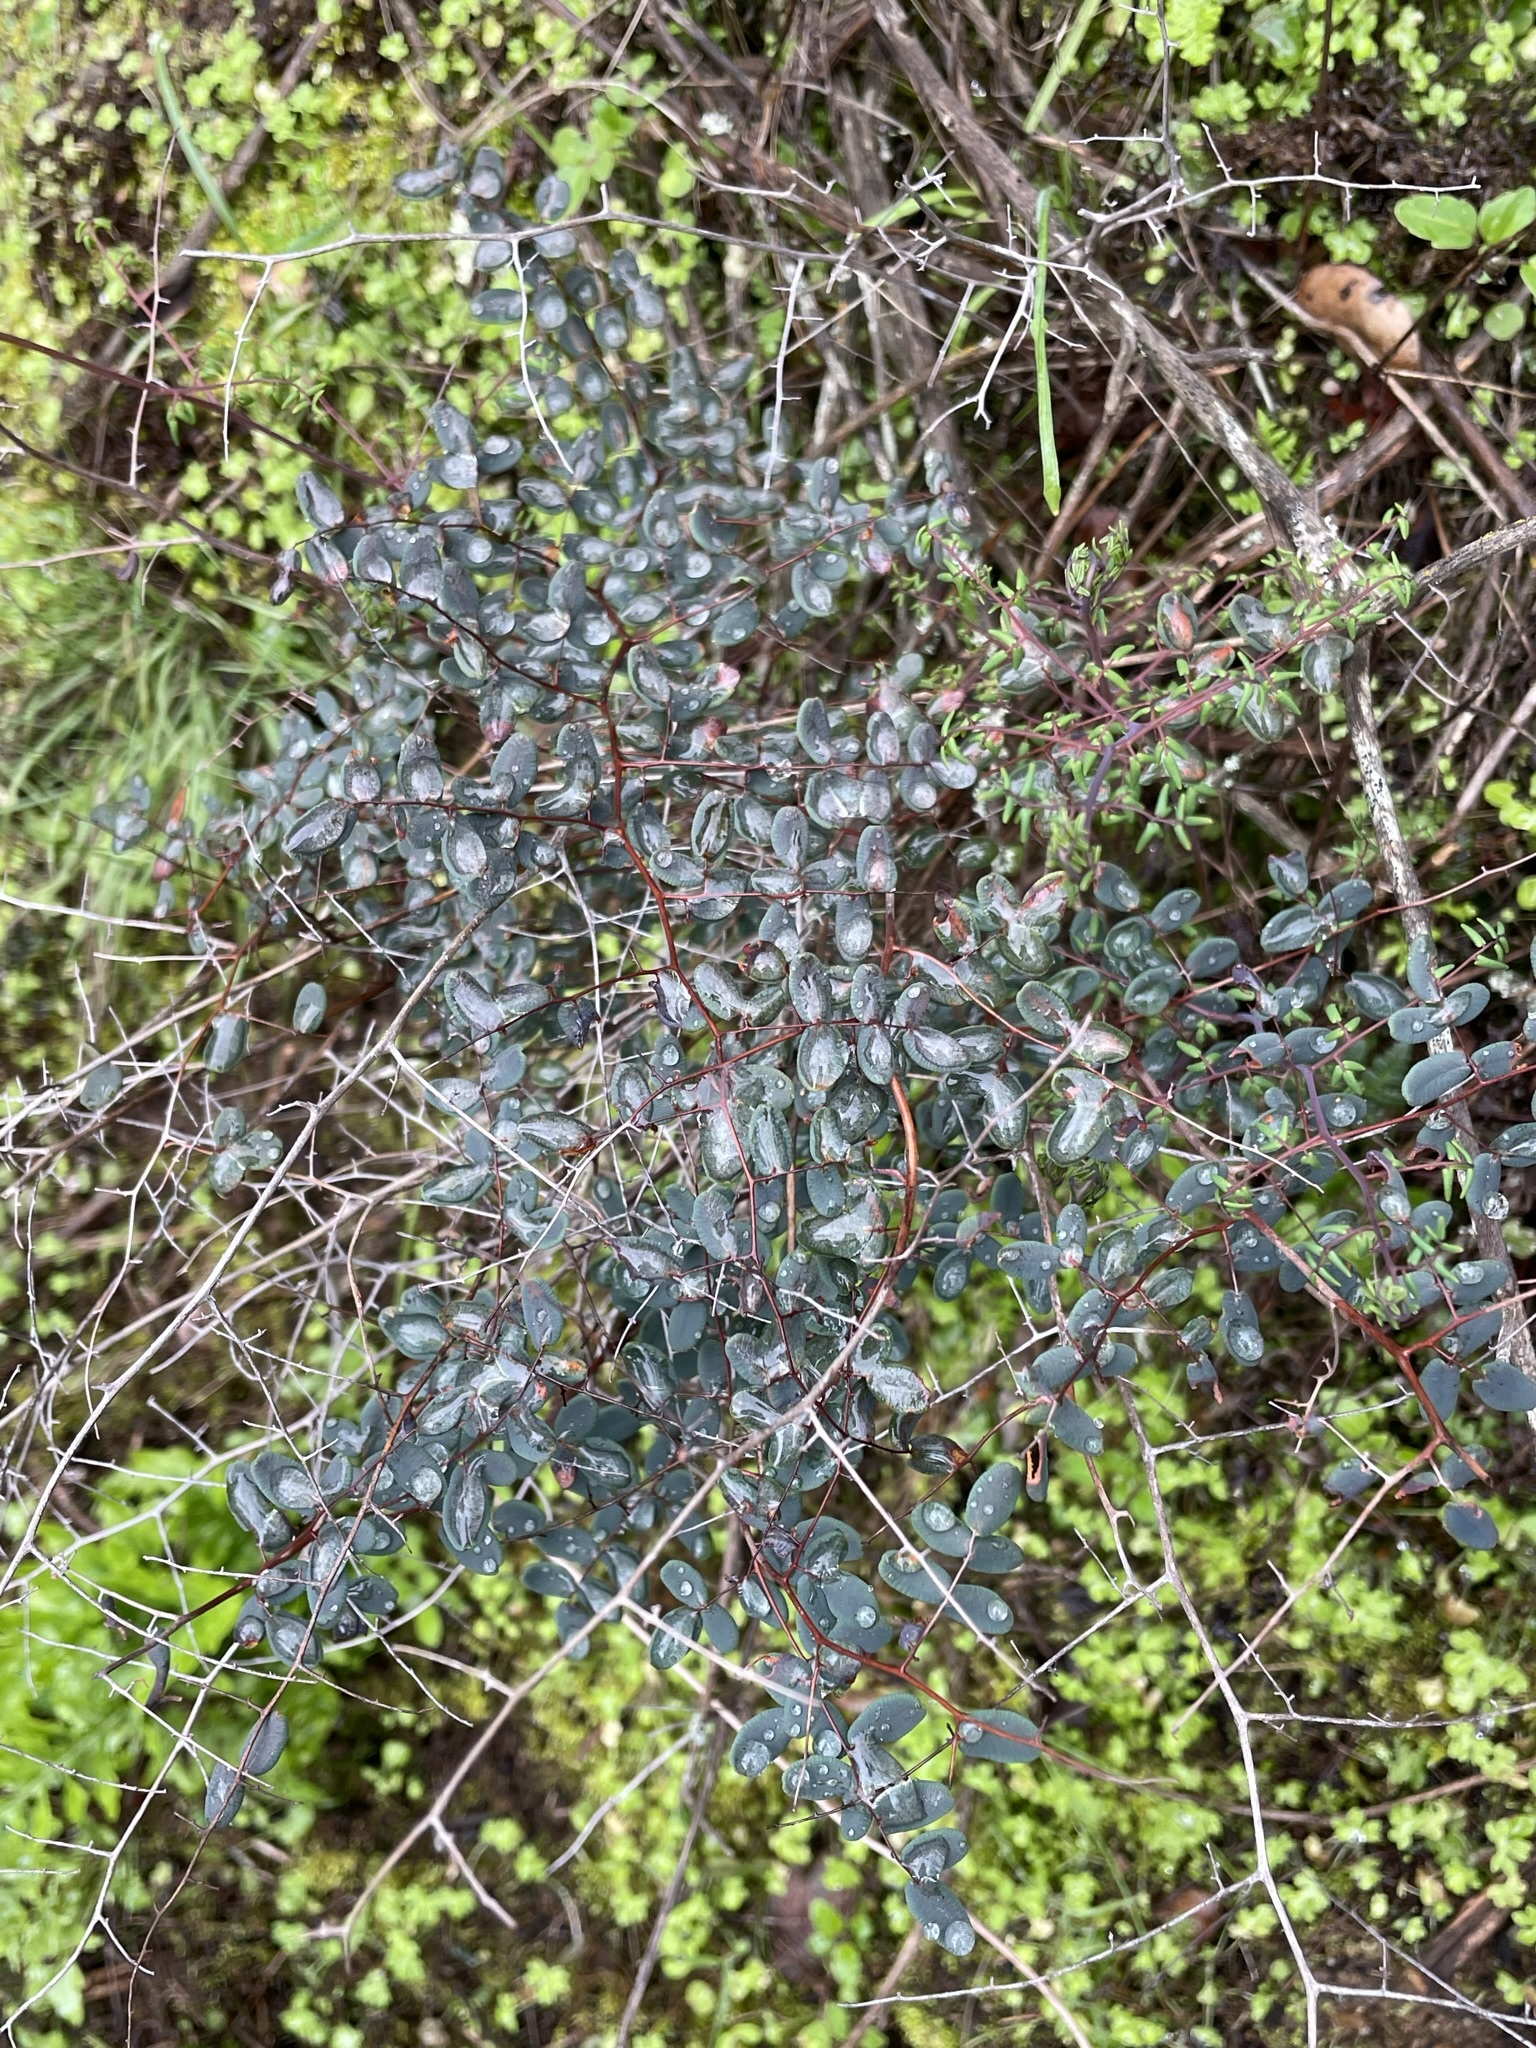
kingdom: Plantae
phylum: Tracheophyta
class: Polypodiopsida
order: Polypodiales
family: Pteridaceae
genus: Pellaea
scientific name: Pellaea andromedifolia
